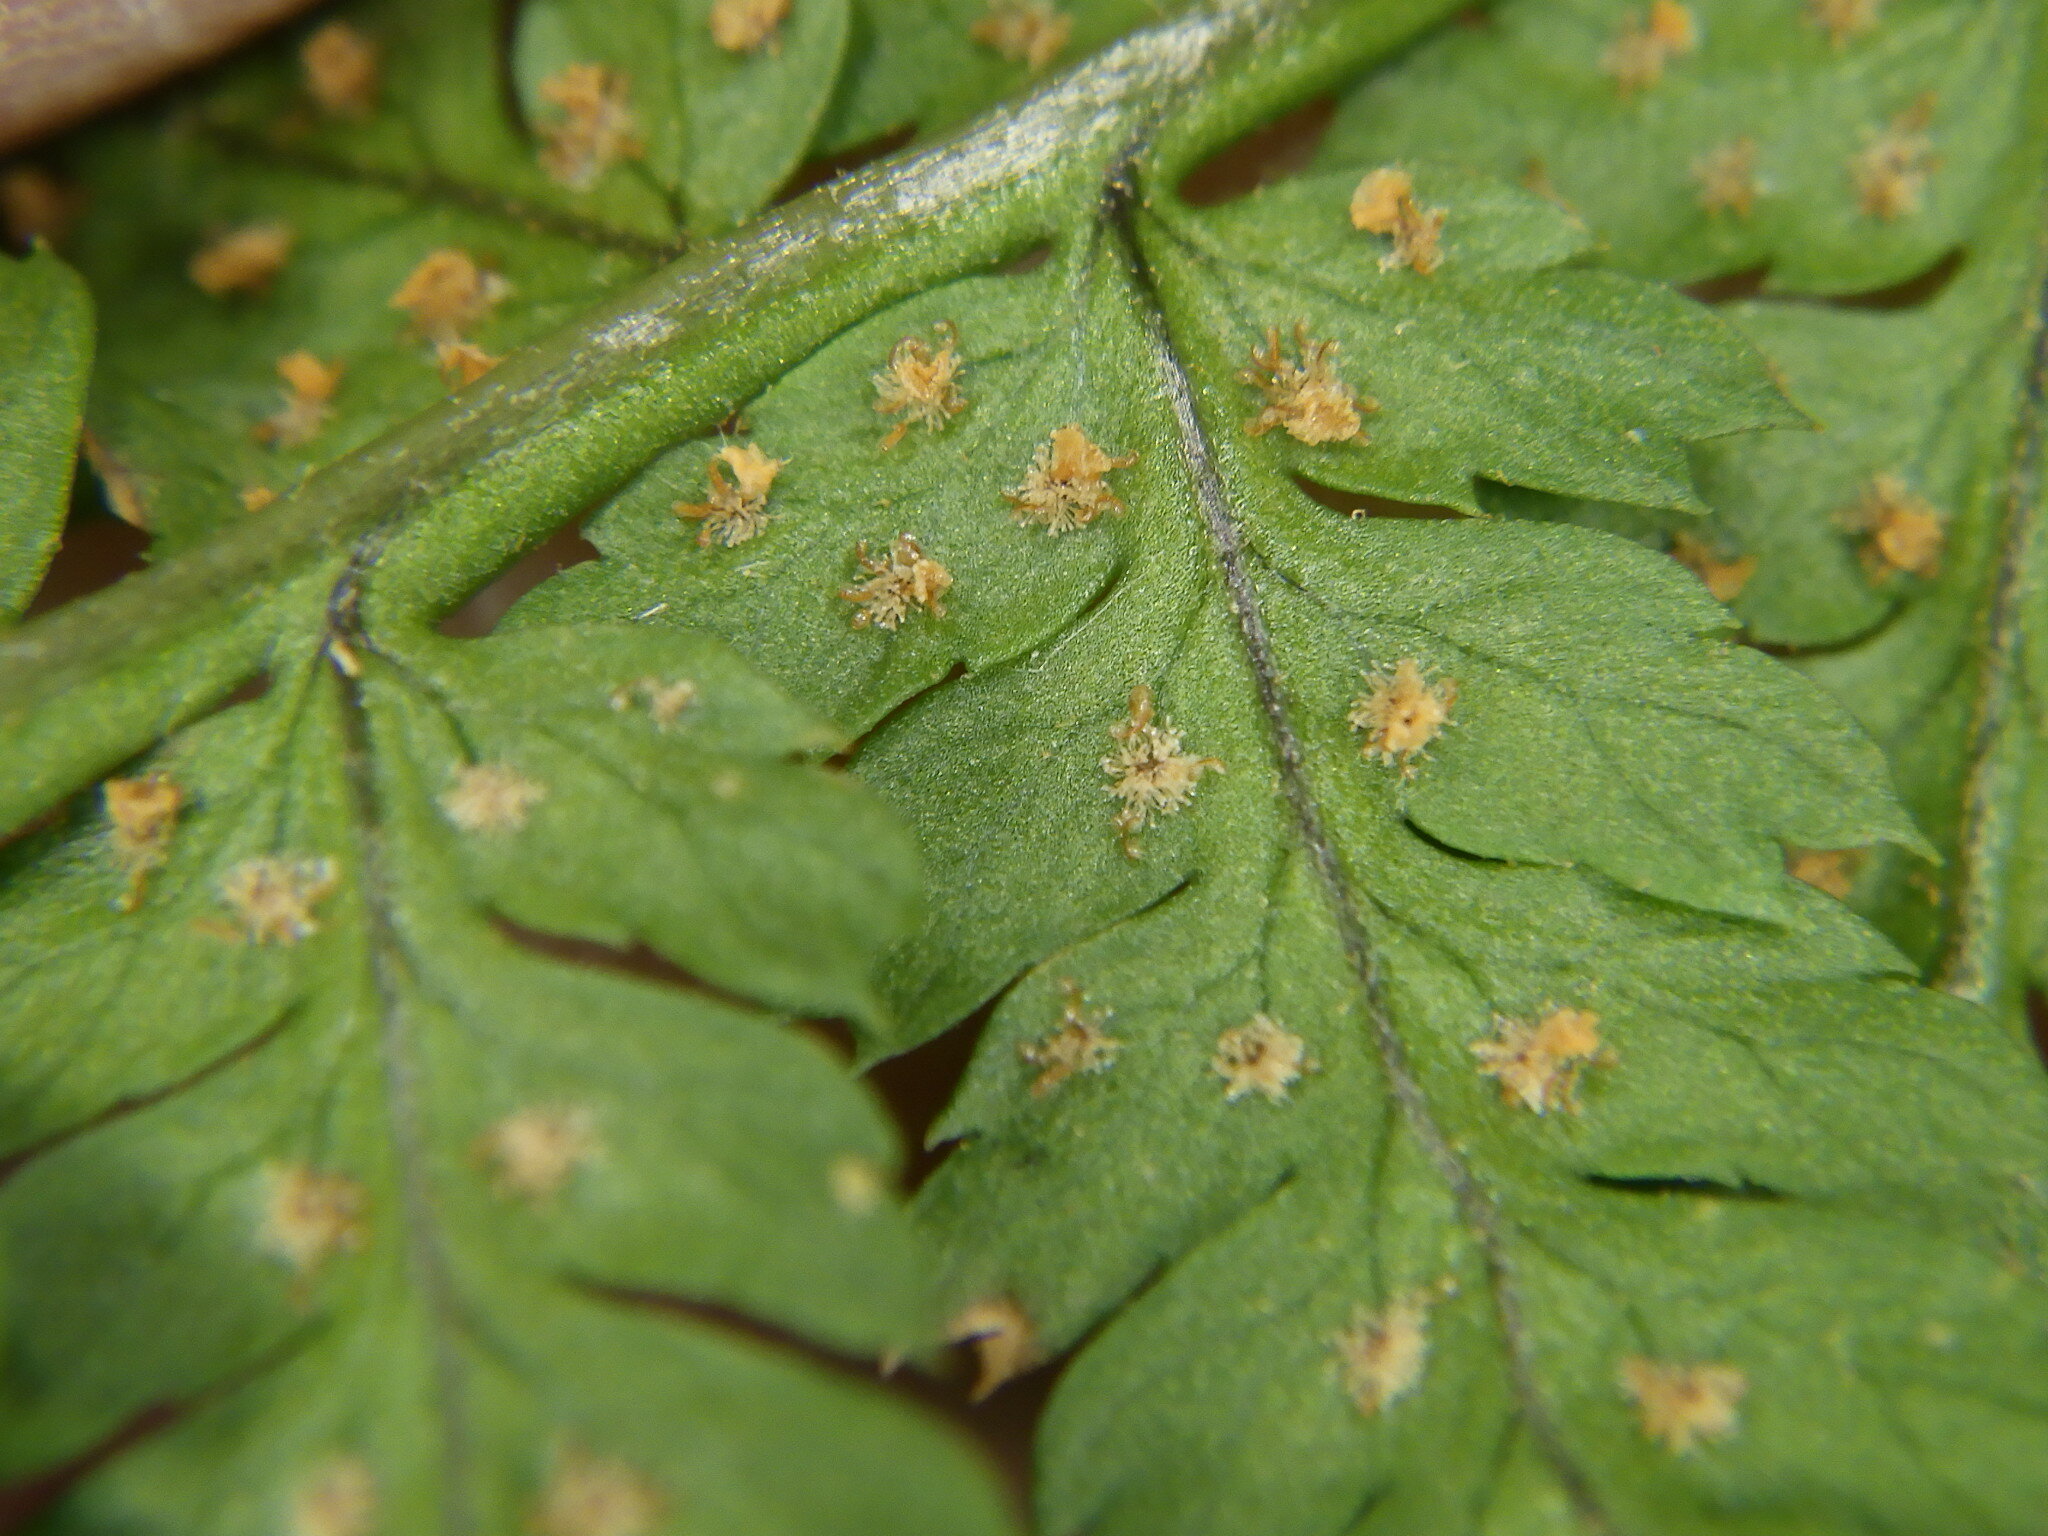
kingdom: Plantae
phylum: Tracheophyta
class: Polypodiopsida
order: Polypodiales
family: Dryopteridaceae
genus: Dryopteris
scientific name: Dryopteris intermedia
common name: Evergreen wood fern
